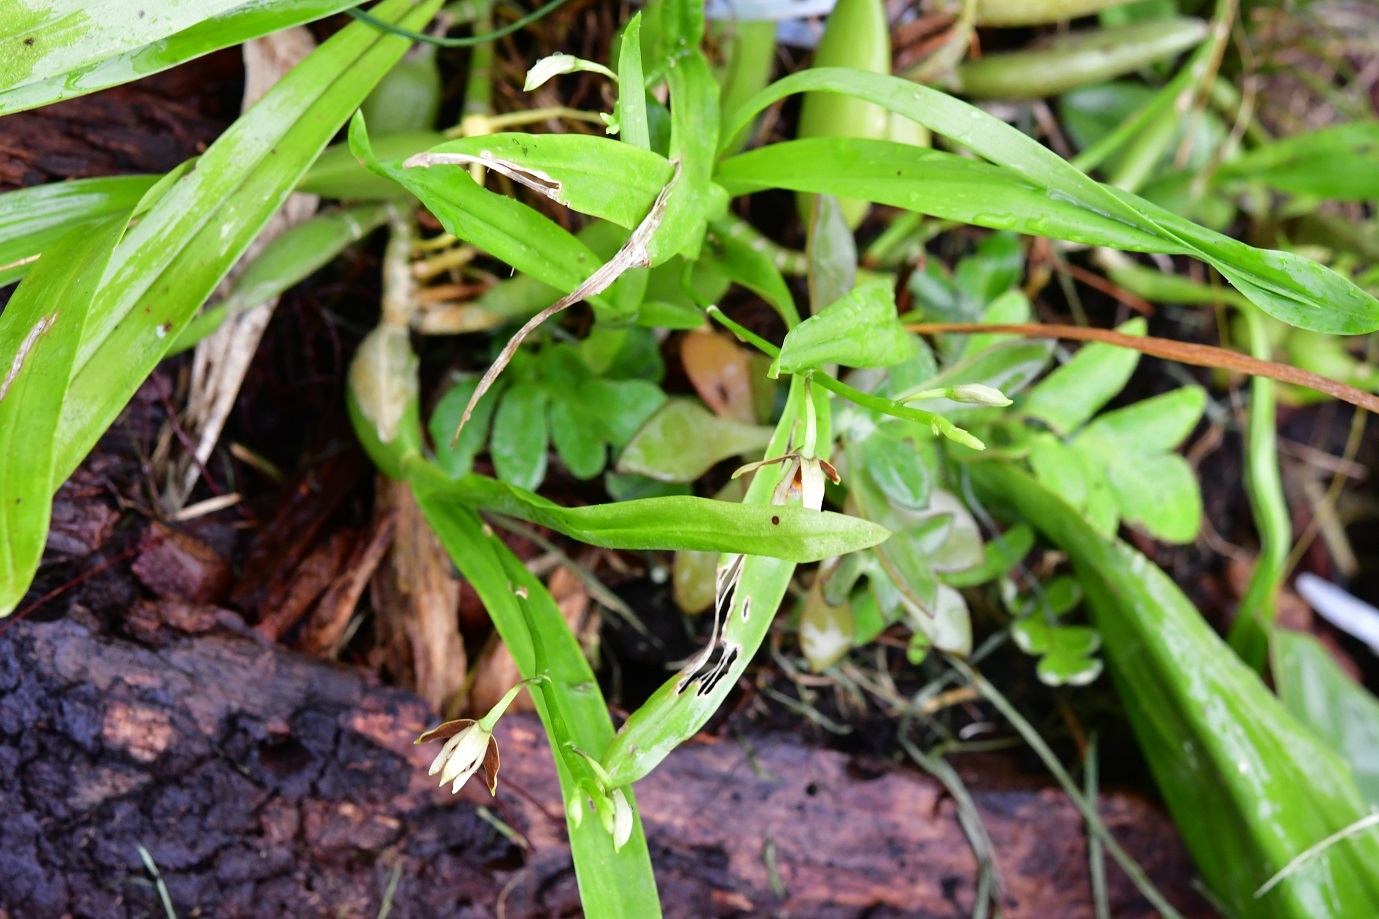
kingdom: Plantae
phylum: Tracheophyta
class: Liliopsida
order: Asparagales
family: Orchidaceae
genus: Prosthechea
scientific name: Prosthechea livida
